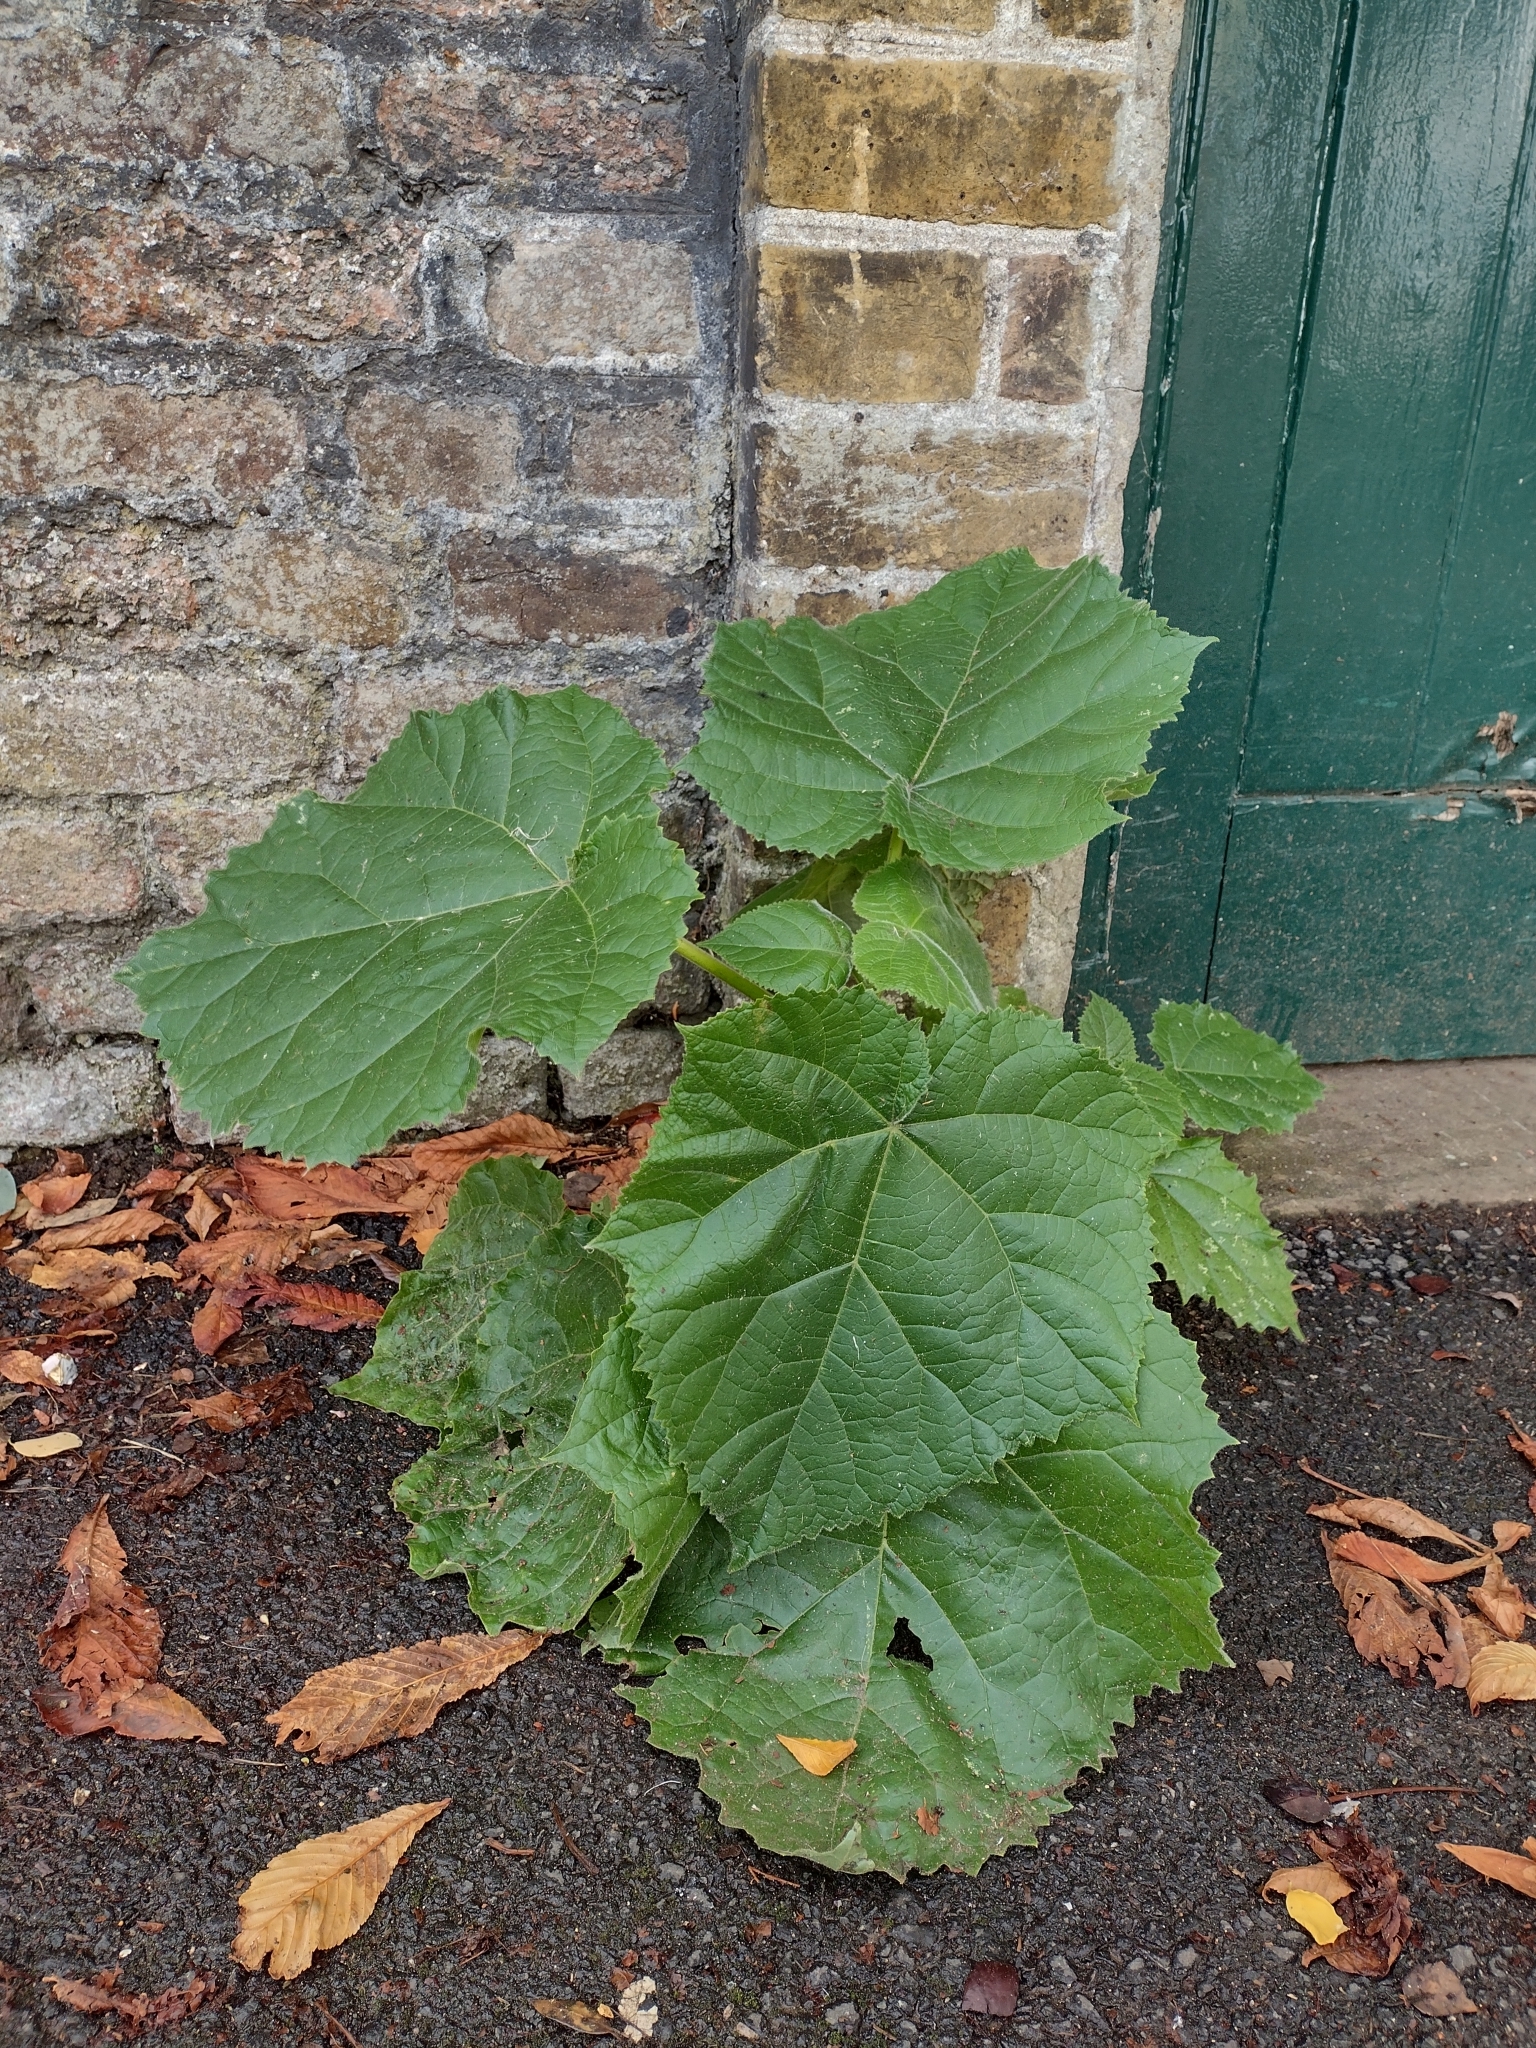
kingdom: Plantae
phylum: Tracheophyta
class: Magnoliopsida
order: Lamiales
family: Paulowniaceae
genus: Paulownia
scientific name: Paulownia tomentosa
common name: Foxglove-tree
